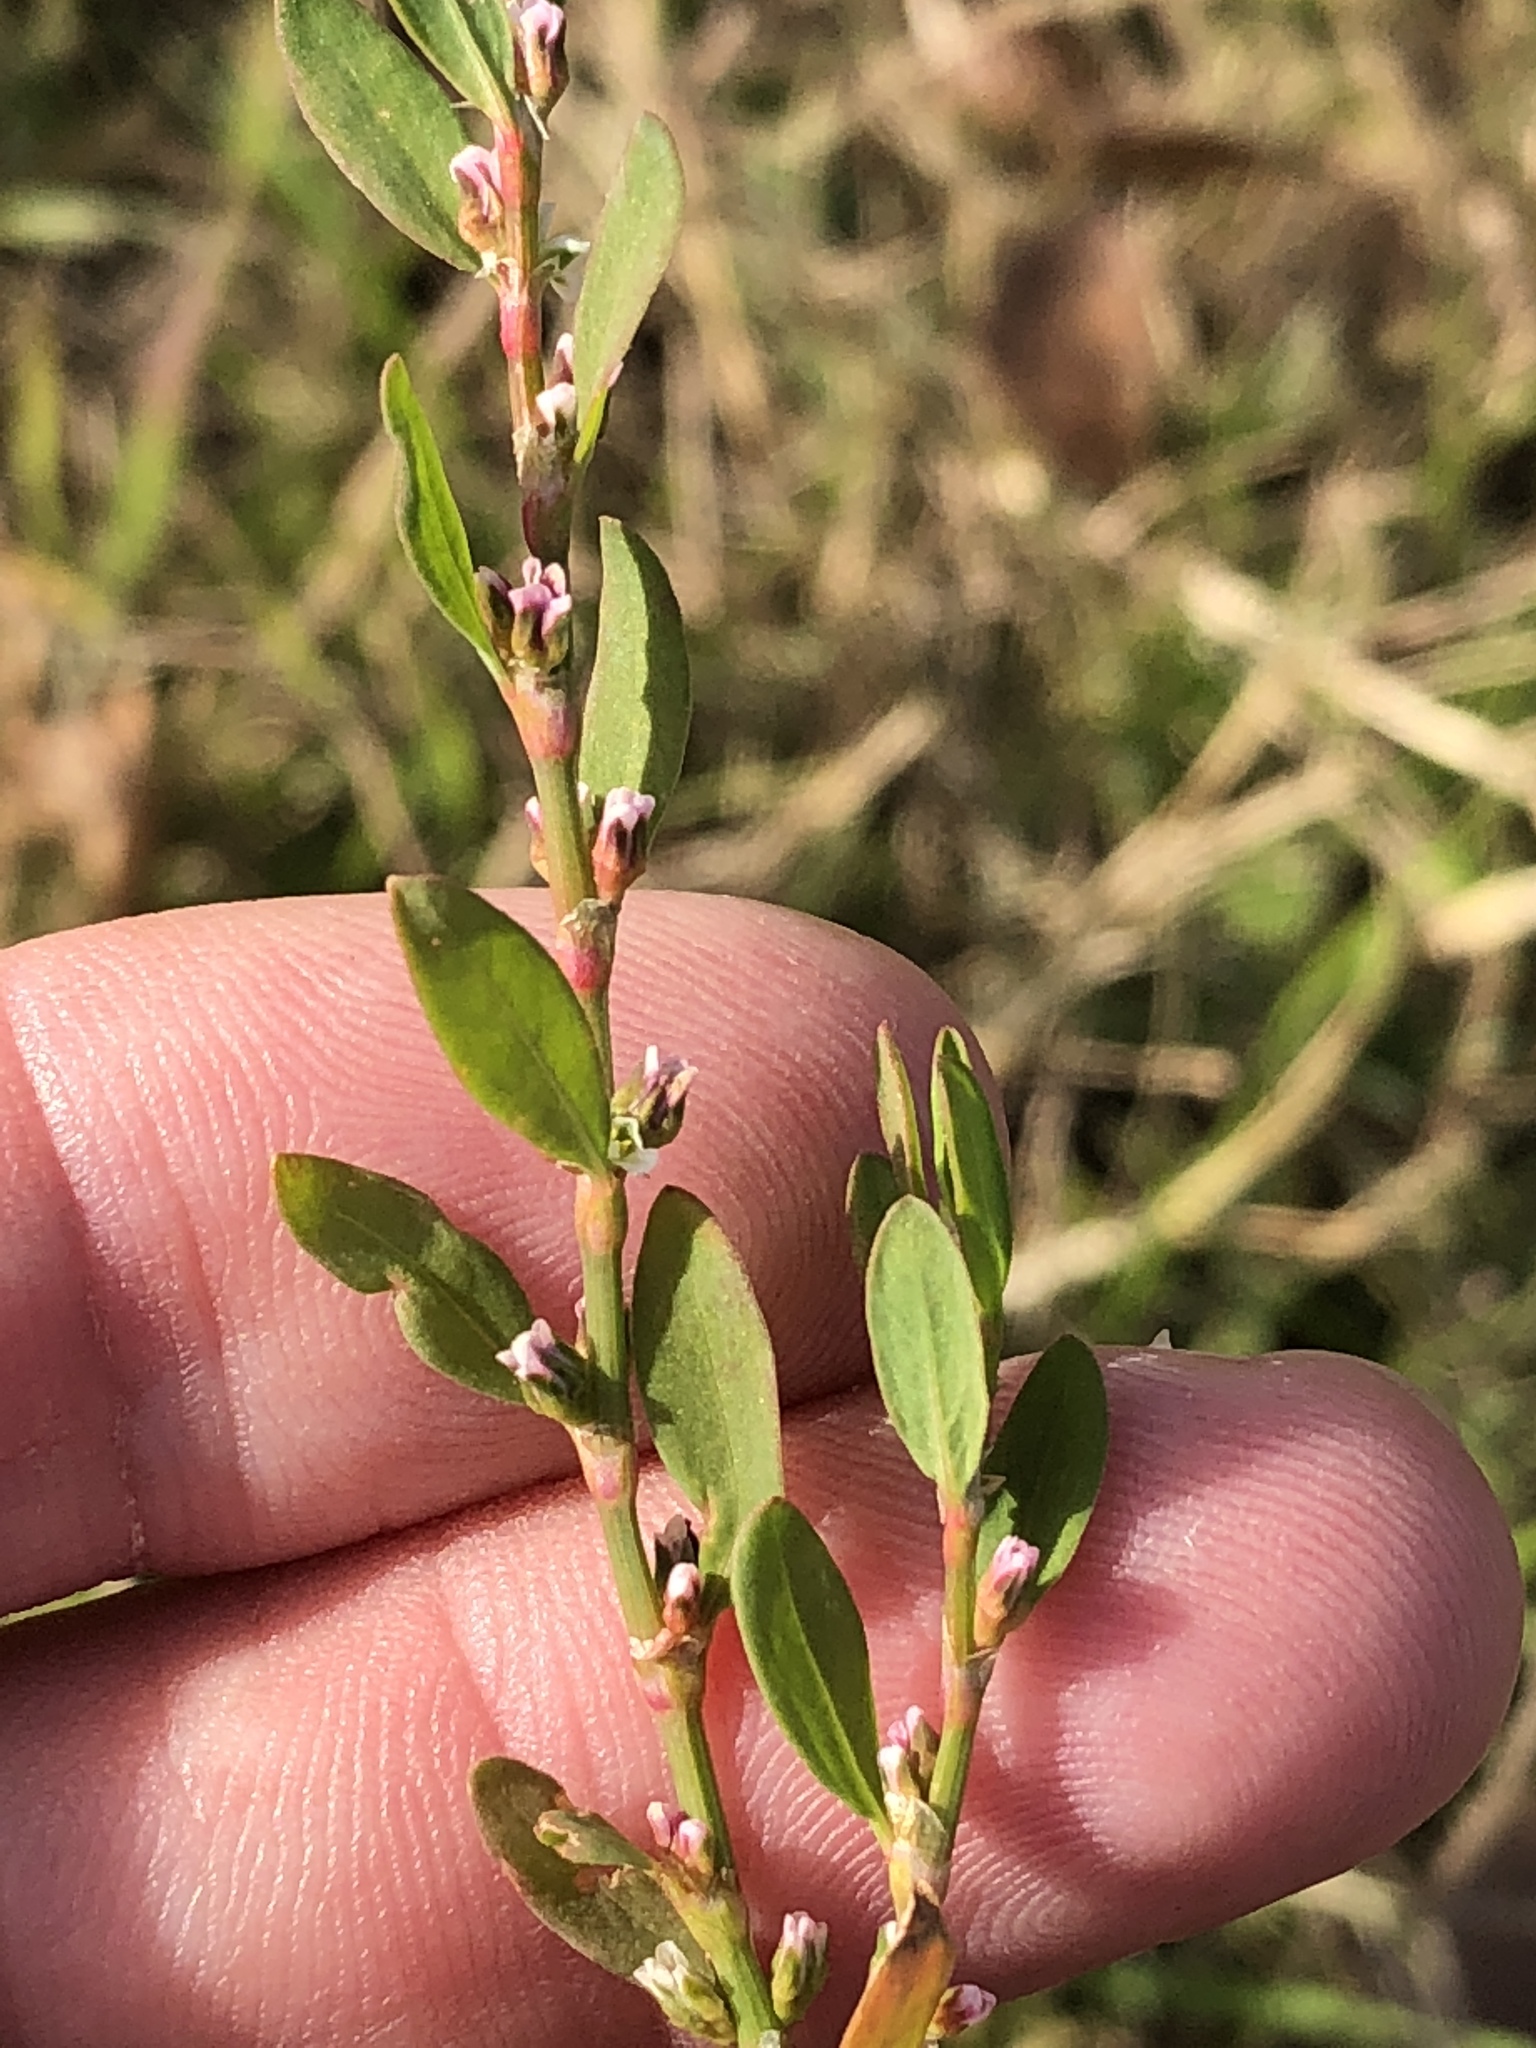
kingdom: Plantae
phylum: Tracheophyta
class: Magnoliopsida
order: Caryophyllales
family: Polygonaceae
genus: Polygonum
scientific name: Polygonum aviculare
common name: Prostrate knotweed
